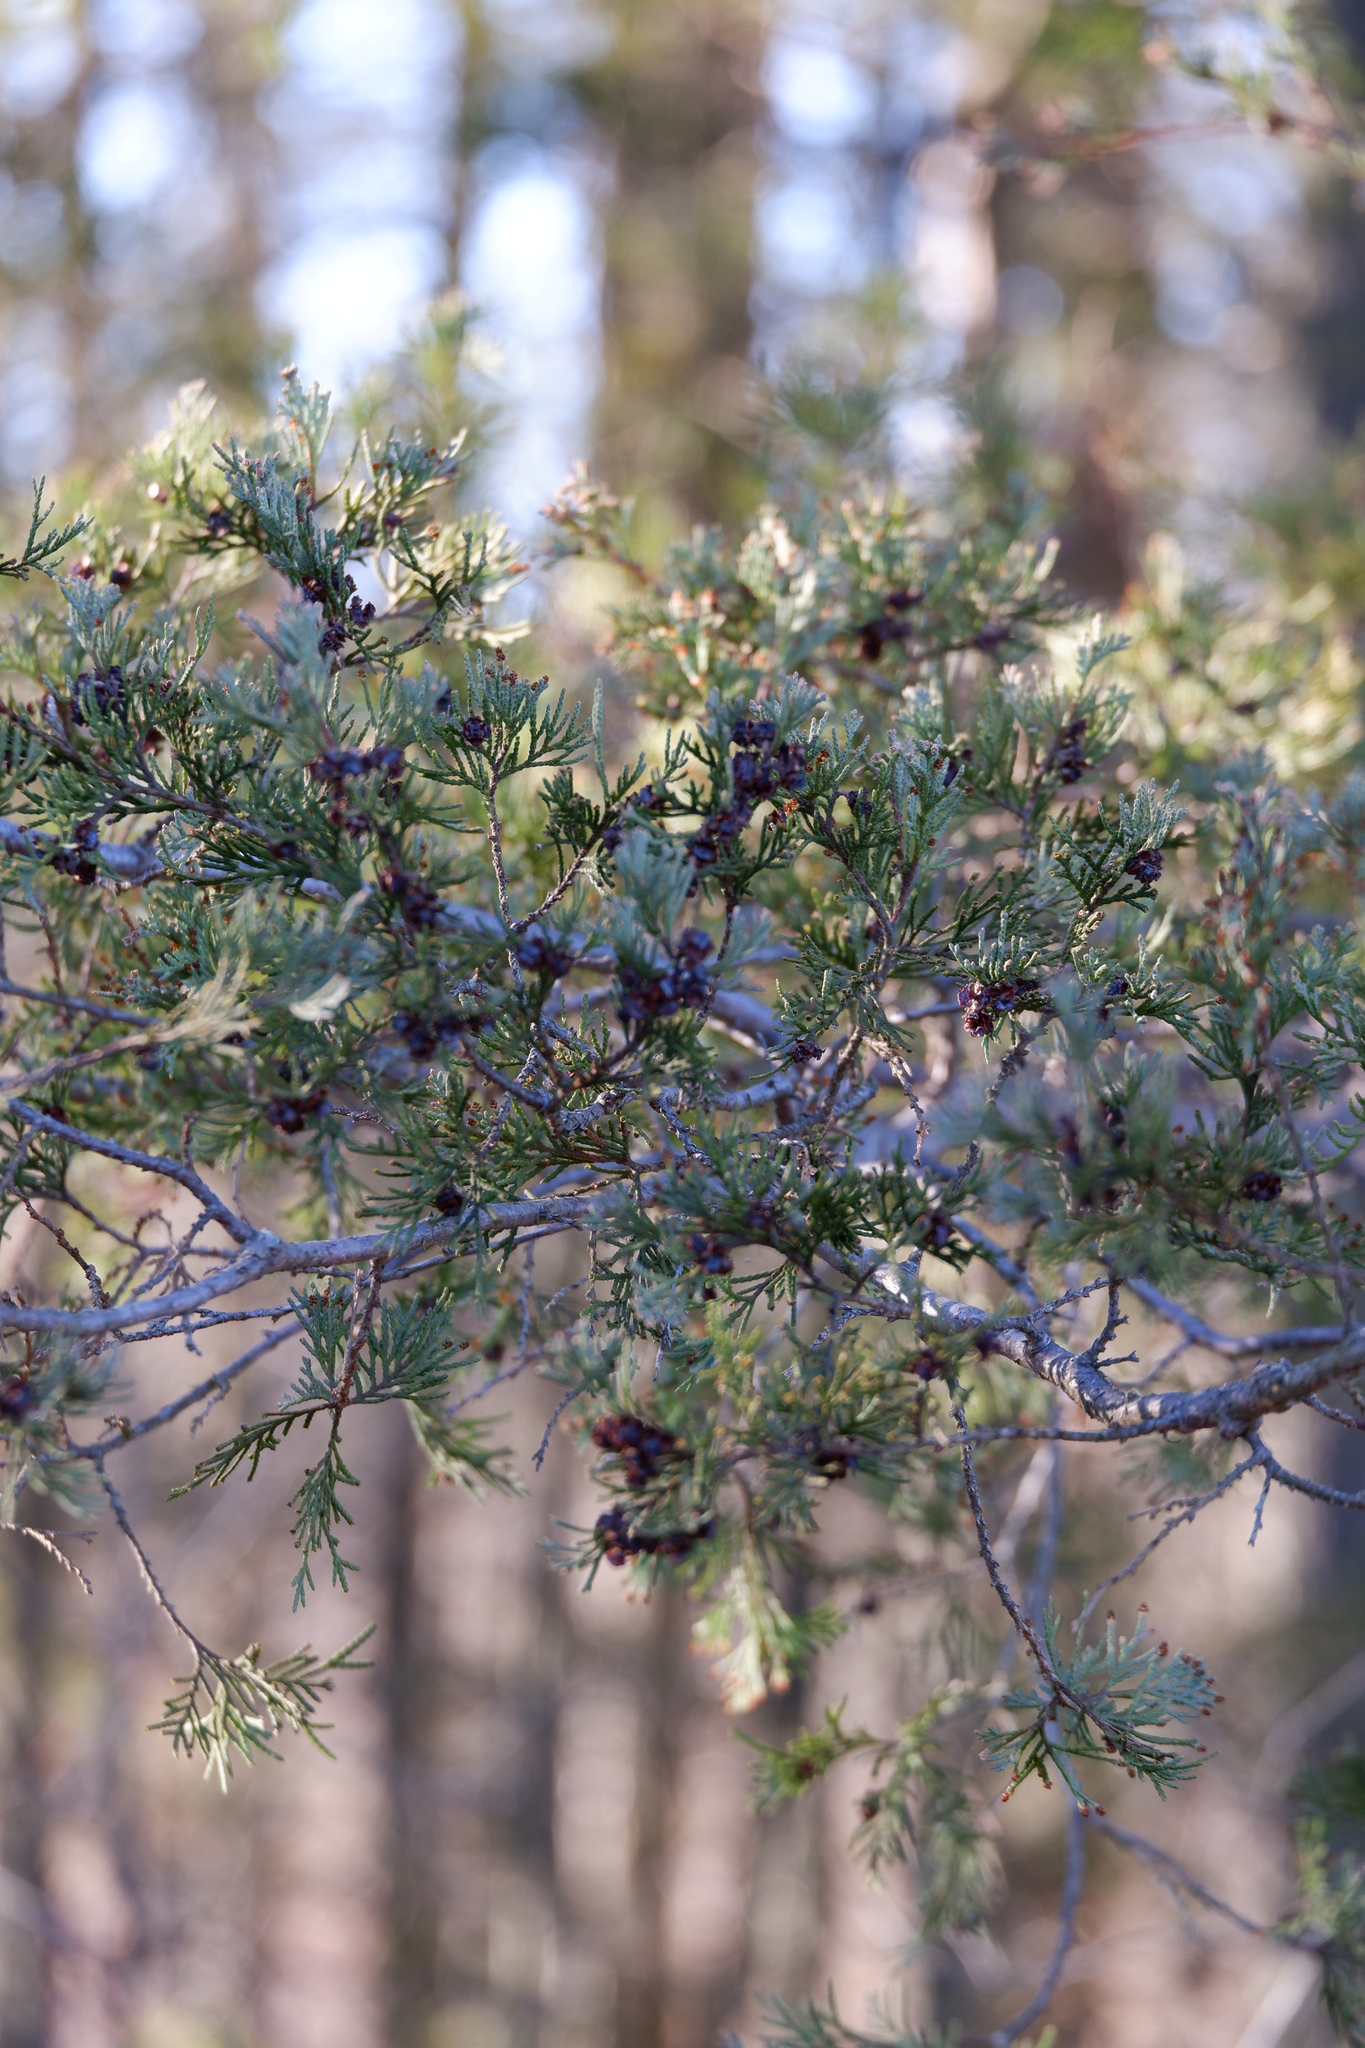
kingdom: Plantae
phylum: Tracheophyta
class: Pinopsida
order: Pinales
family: Cupressaceae
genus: Chamaecyparis
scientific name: Chamaecyparis thyoides
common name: Atlantic white cedar
